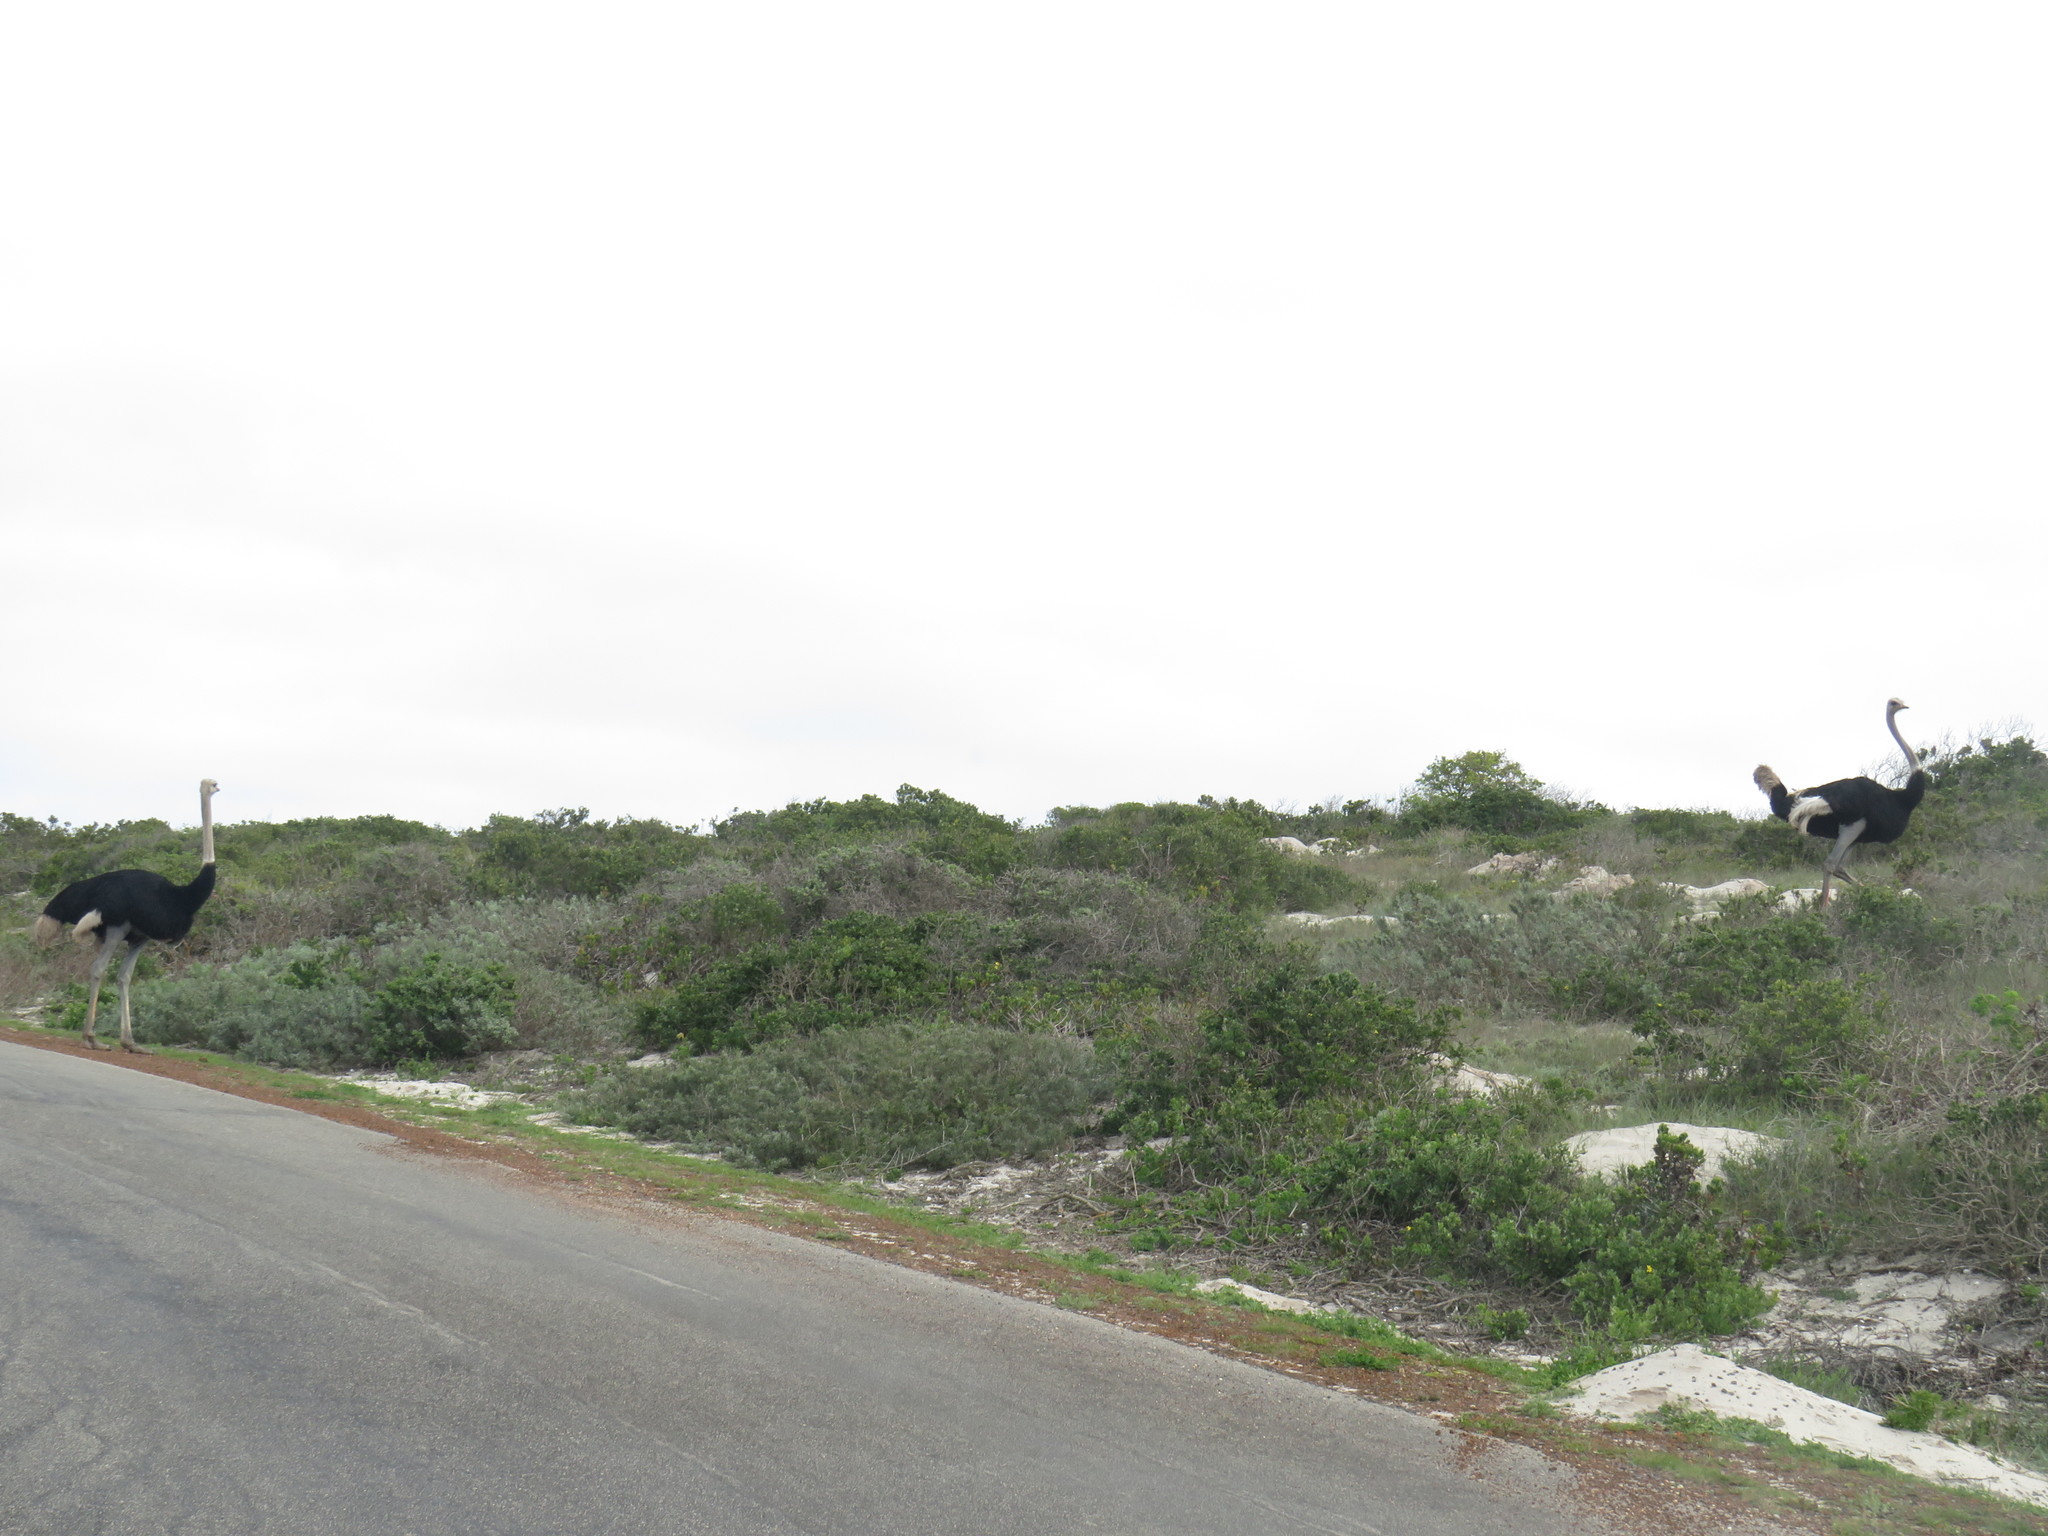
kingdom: Animalia
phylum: Chordata
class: Aves
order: Struthioniformes
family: Struthionidae
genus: Struthio
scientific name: Struthio camelus
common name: Common ostrich
